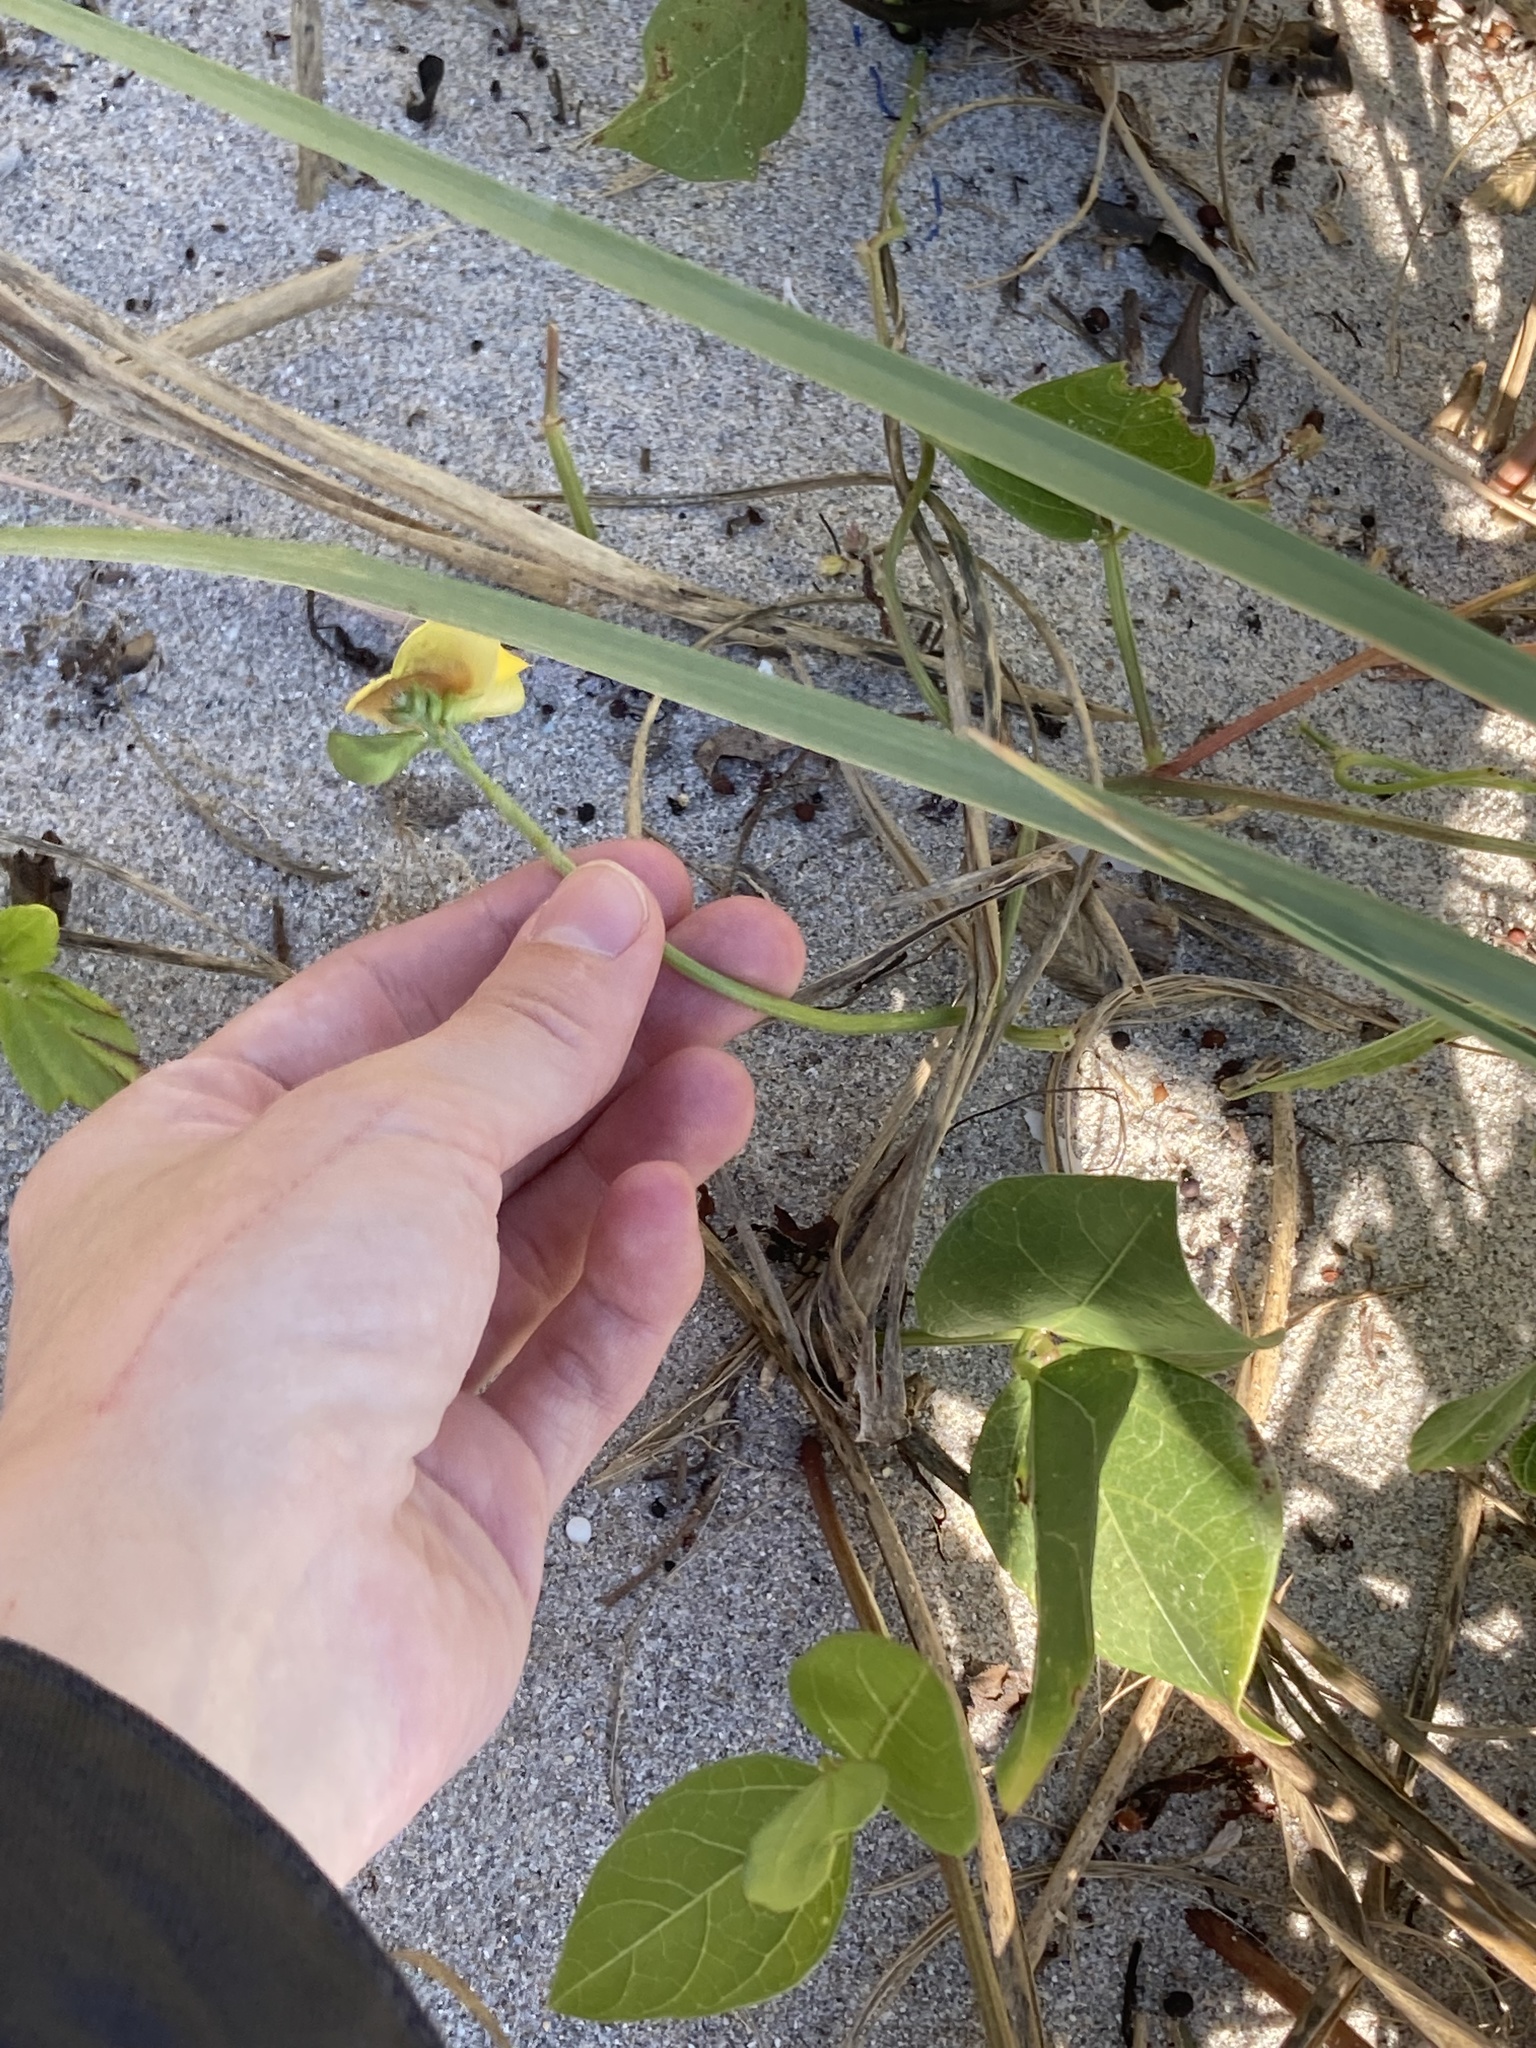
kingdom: Plantae
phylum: Tracheophyta
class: Magnoliopsida
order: Fabales
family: Fabaceae
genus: Vigna
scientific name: Vigna luteola
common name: Hairypod cowpea
